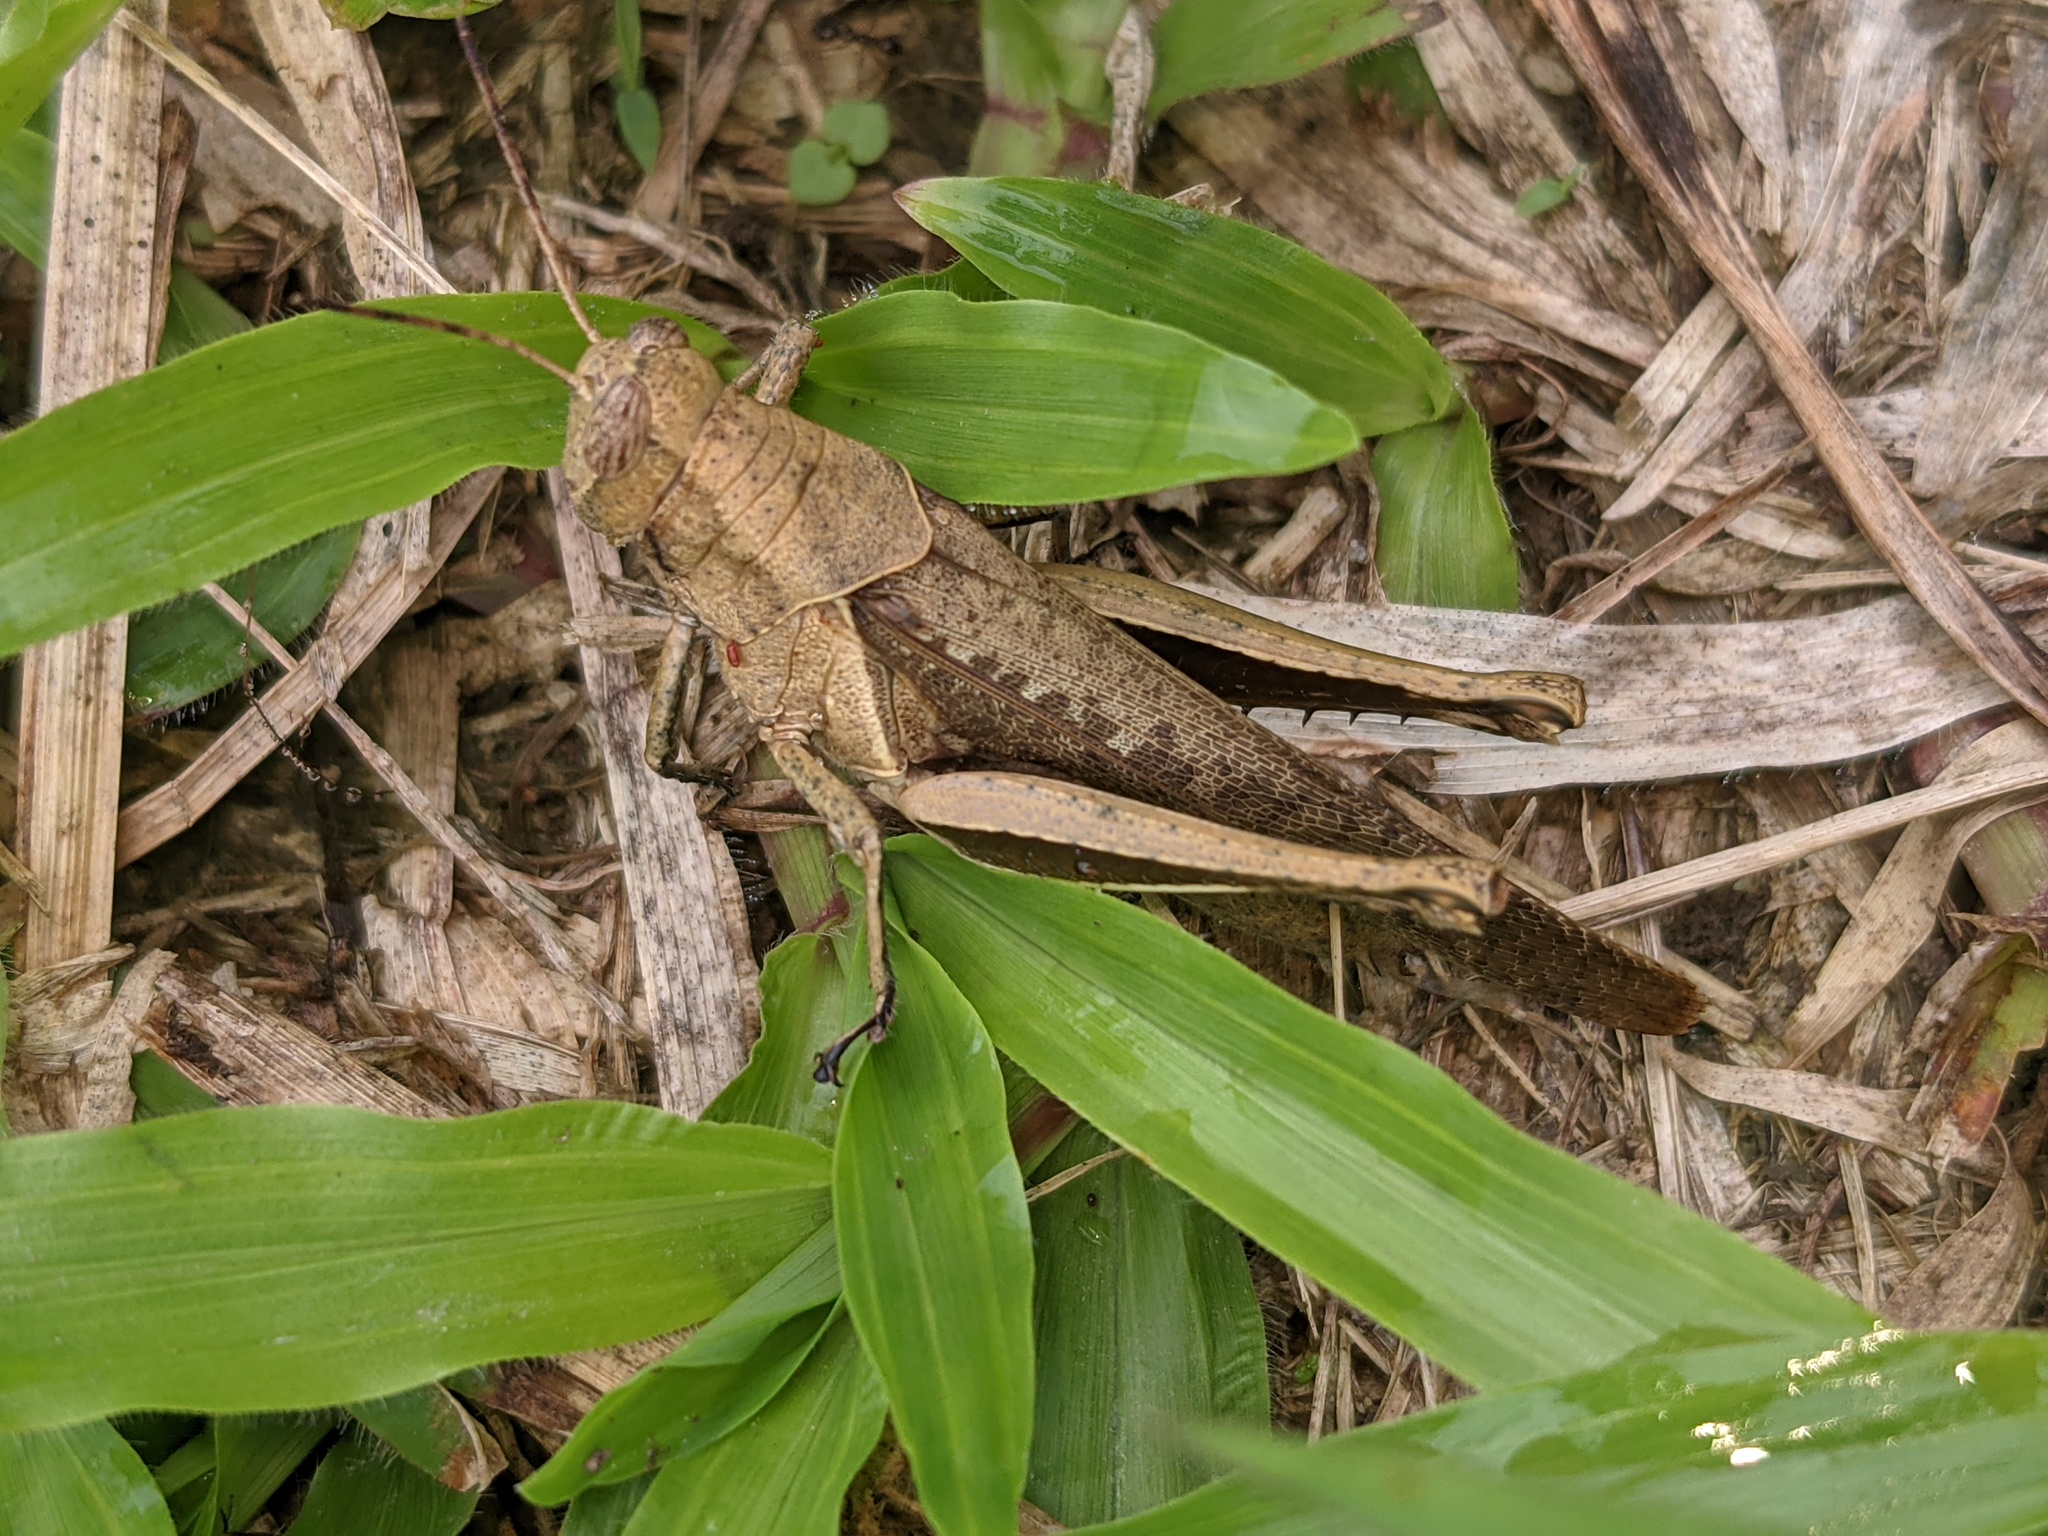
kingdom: Animalia
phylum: Arthropoda
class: Insecta
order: Orthoptera
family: Acrididae
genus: Abracris
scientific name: Abracris flavolineata
